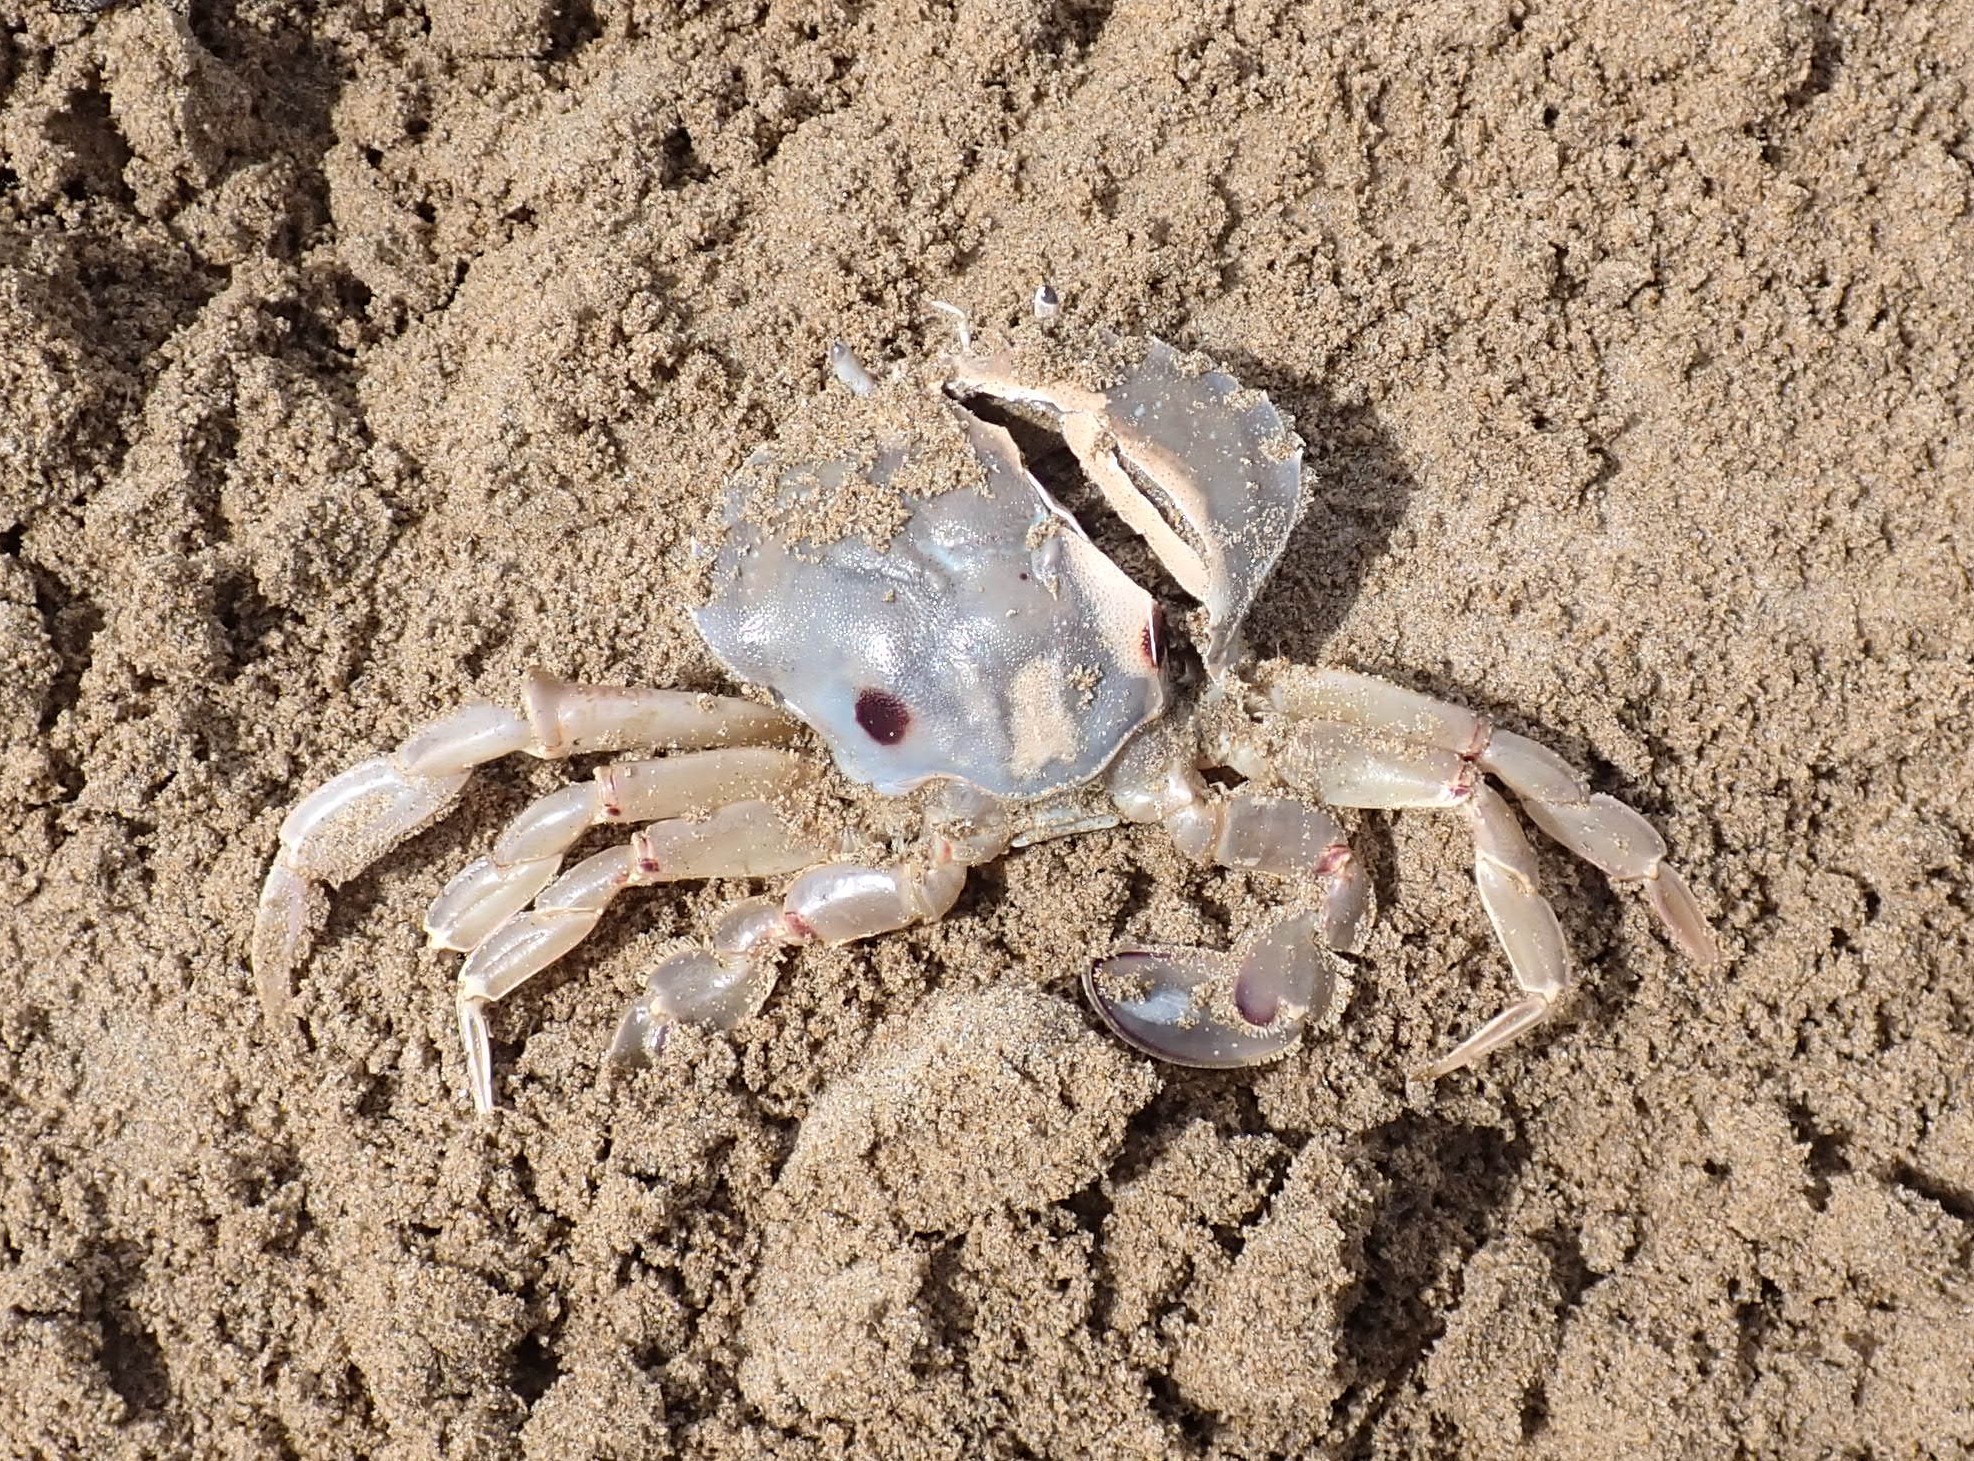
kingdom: Animalia
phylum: Arthropoda
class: Malacostraca
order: Decapoda
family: Ovalipidae
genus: Ovalipes
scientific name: Ovalipes australiensis
